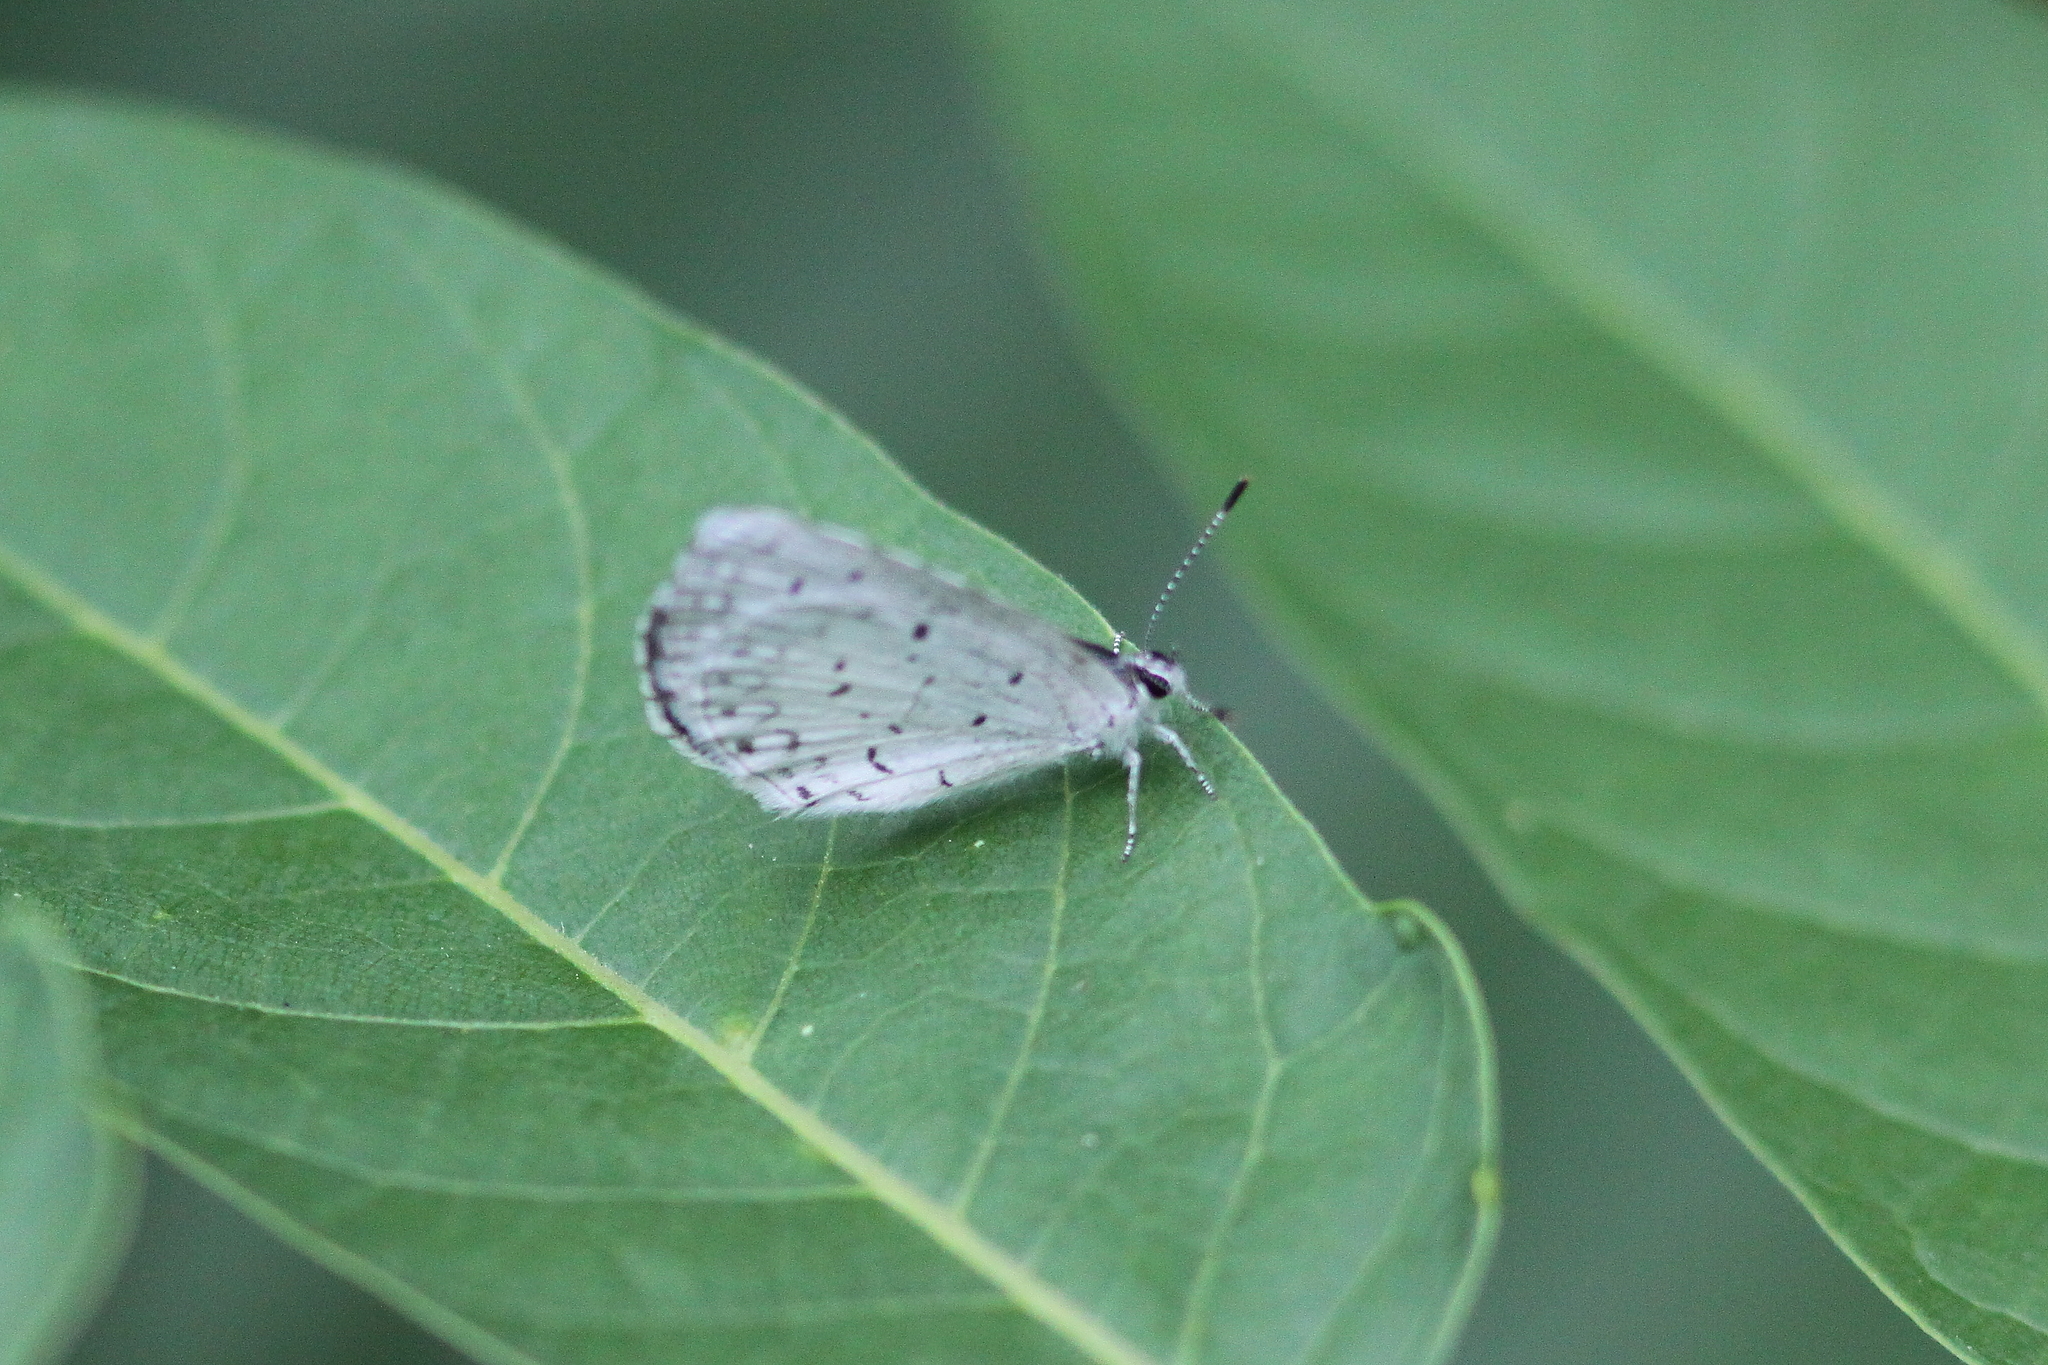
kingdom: Animalia
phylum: Arthropoda
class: Insecta
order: Lepidoptera
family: Lycaenidae
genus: Cyaniris
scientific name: Cyaniris neglecta
